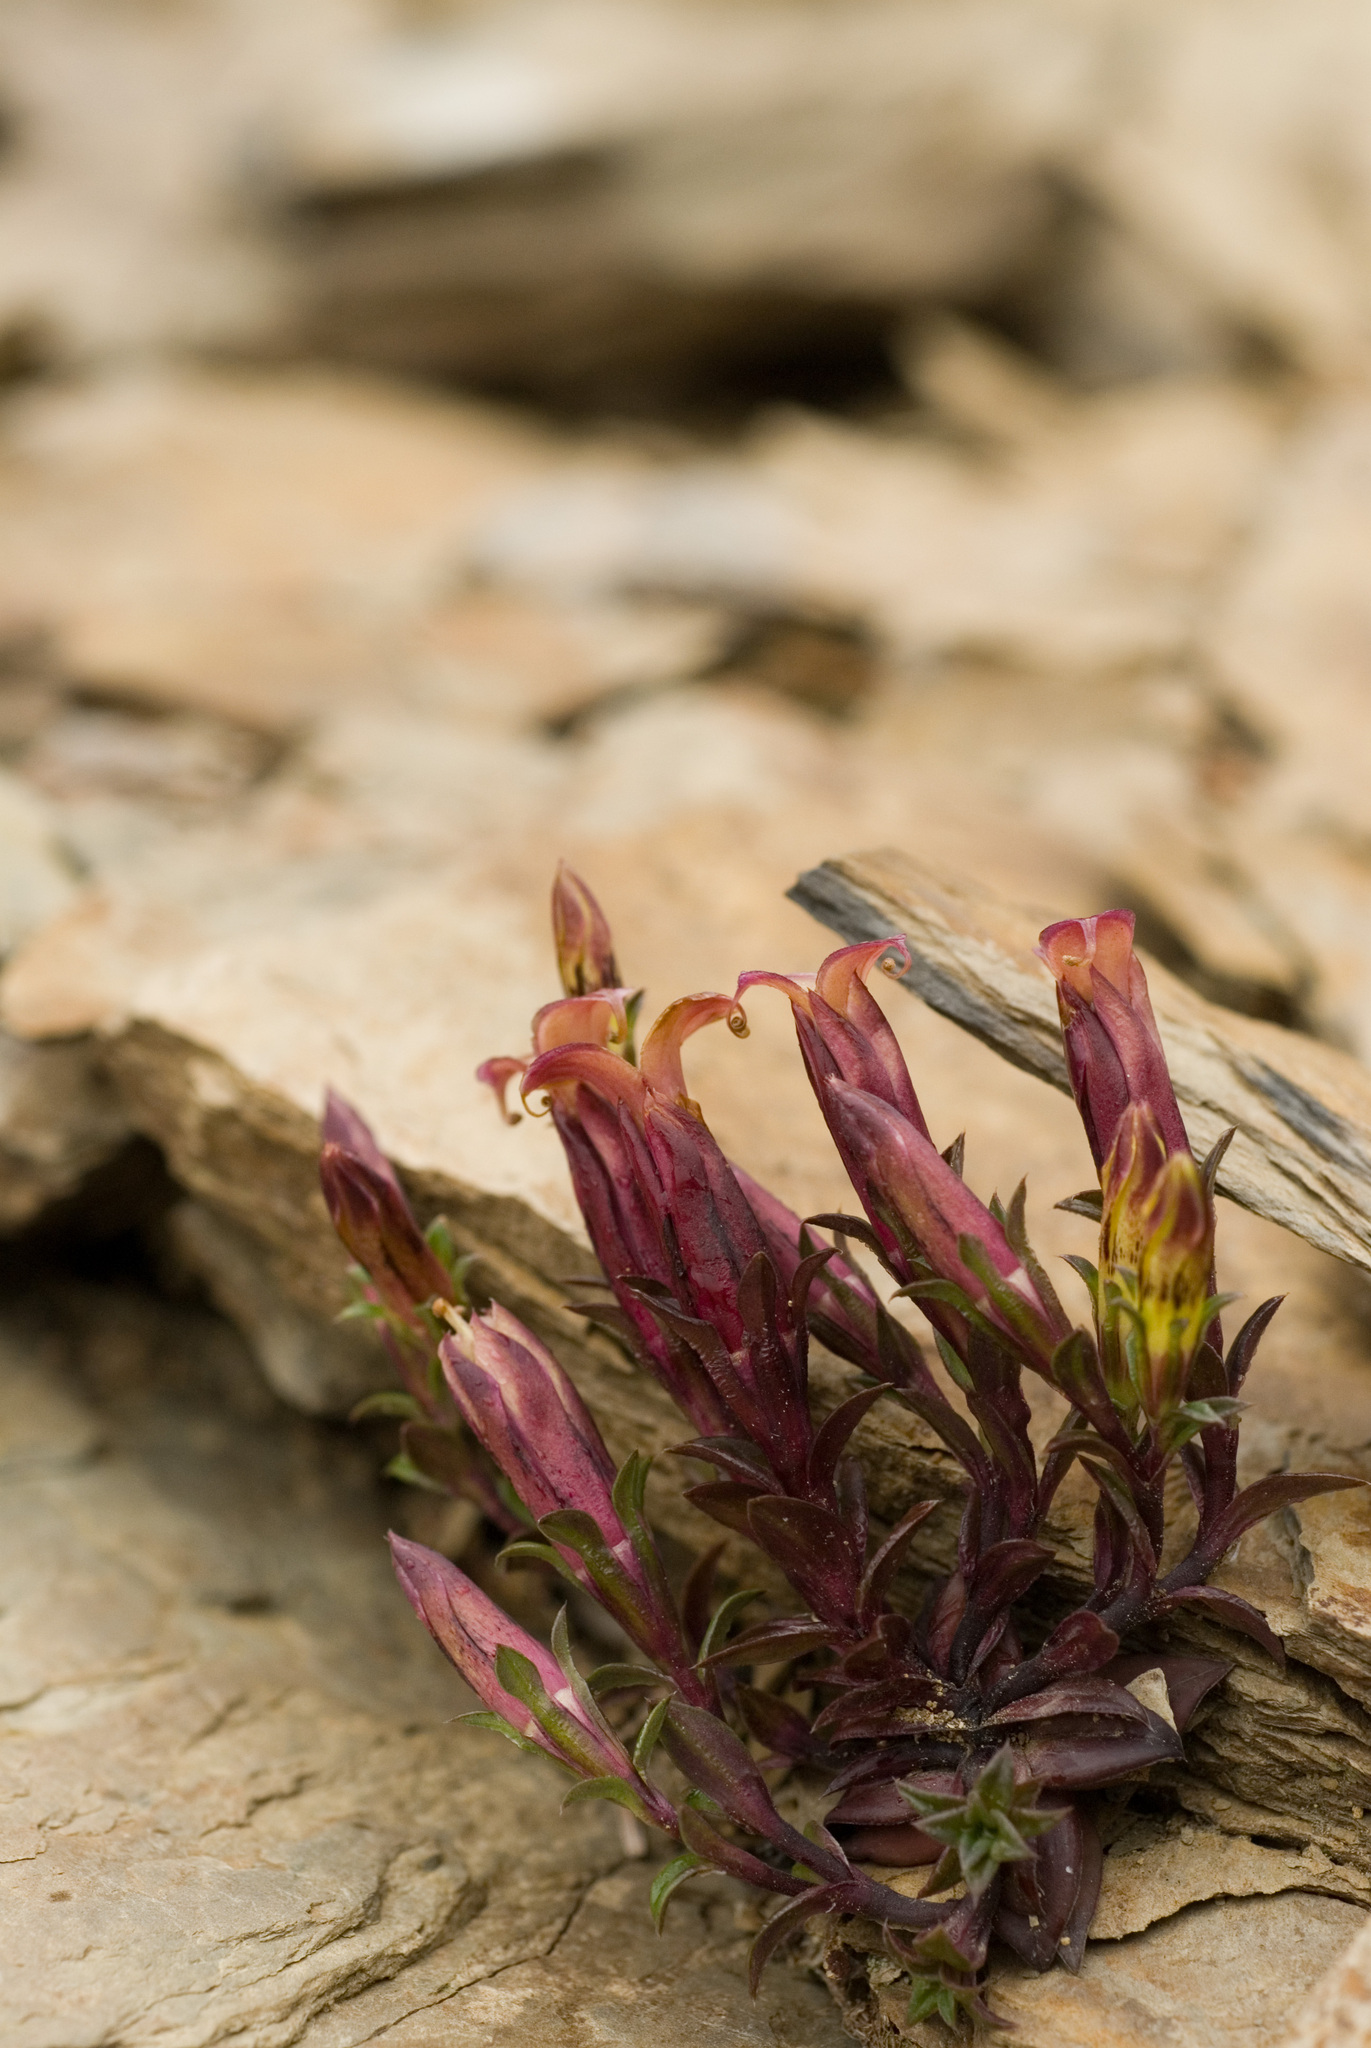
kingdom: Plantae
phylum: Tracheophyta
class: Magnoliopsida
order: Gentianales
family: Gentianaceae
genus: Gentiana
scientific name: Gentiana scabrida
